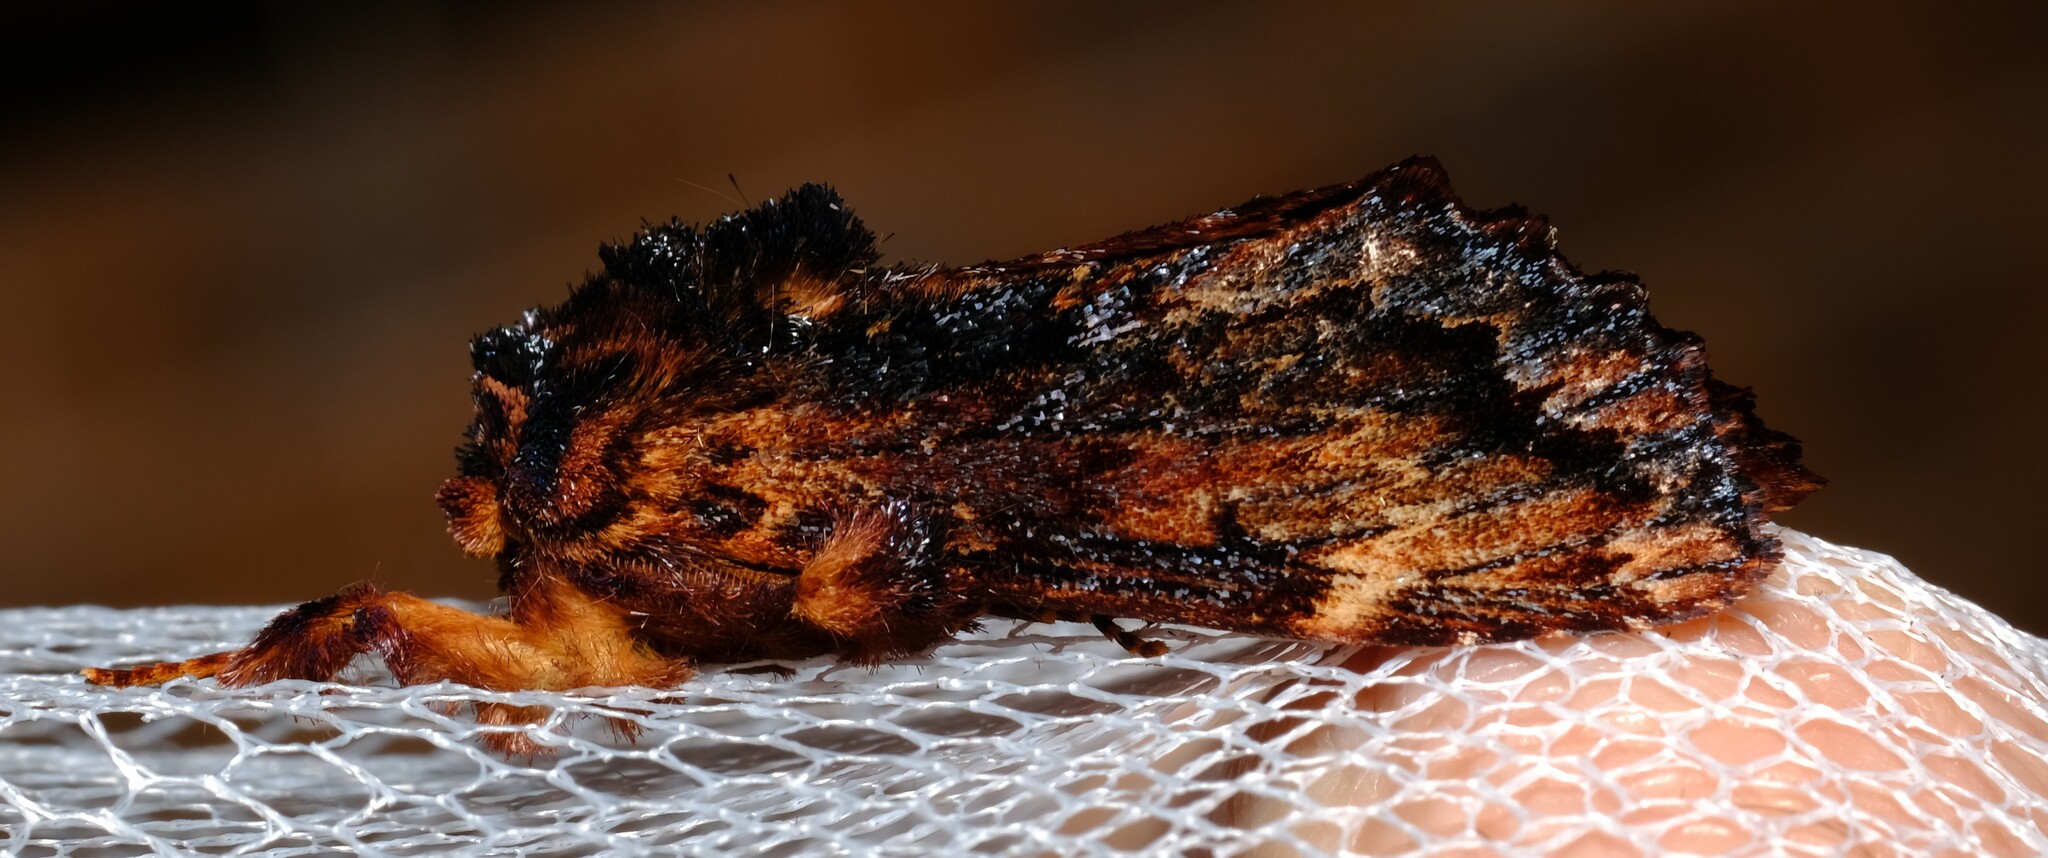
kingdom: Animalia
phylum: Arthropoda
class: Insecta
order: Lepidoptera
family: Notodontidae
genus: Sorama
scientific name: Sorama bicolor
